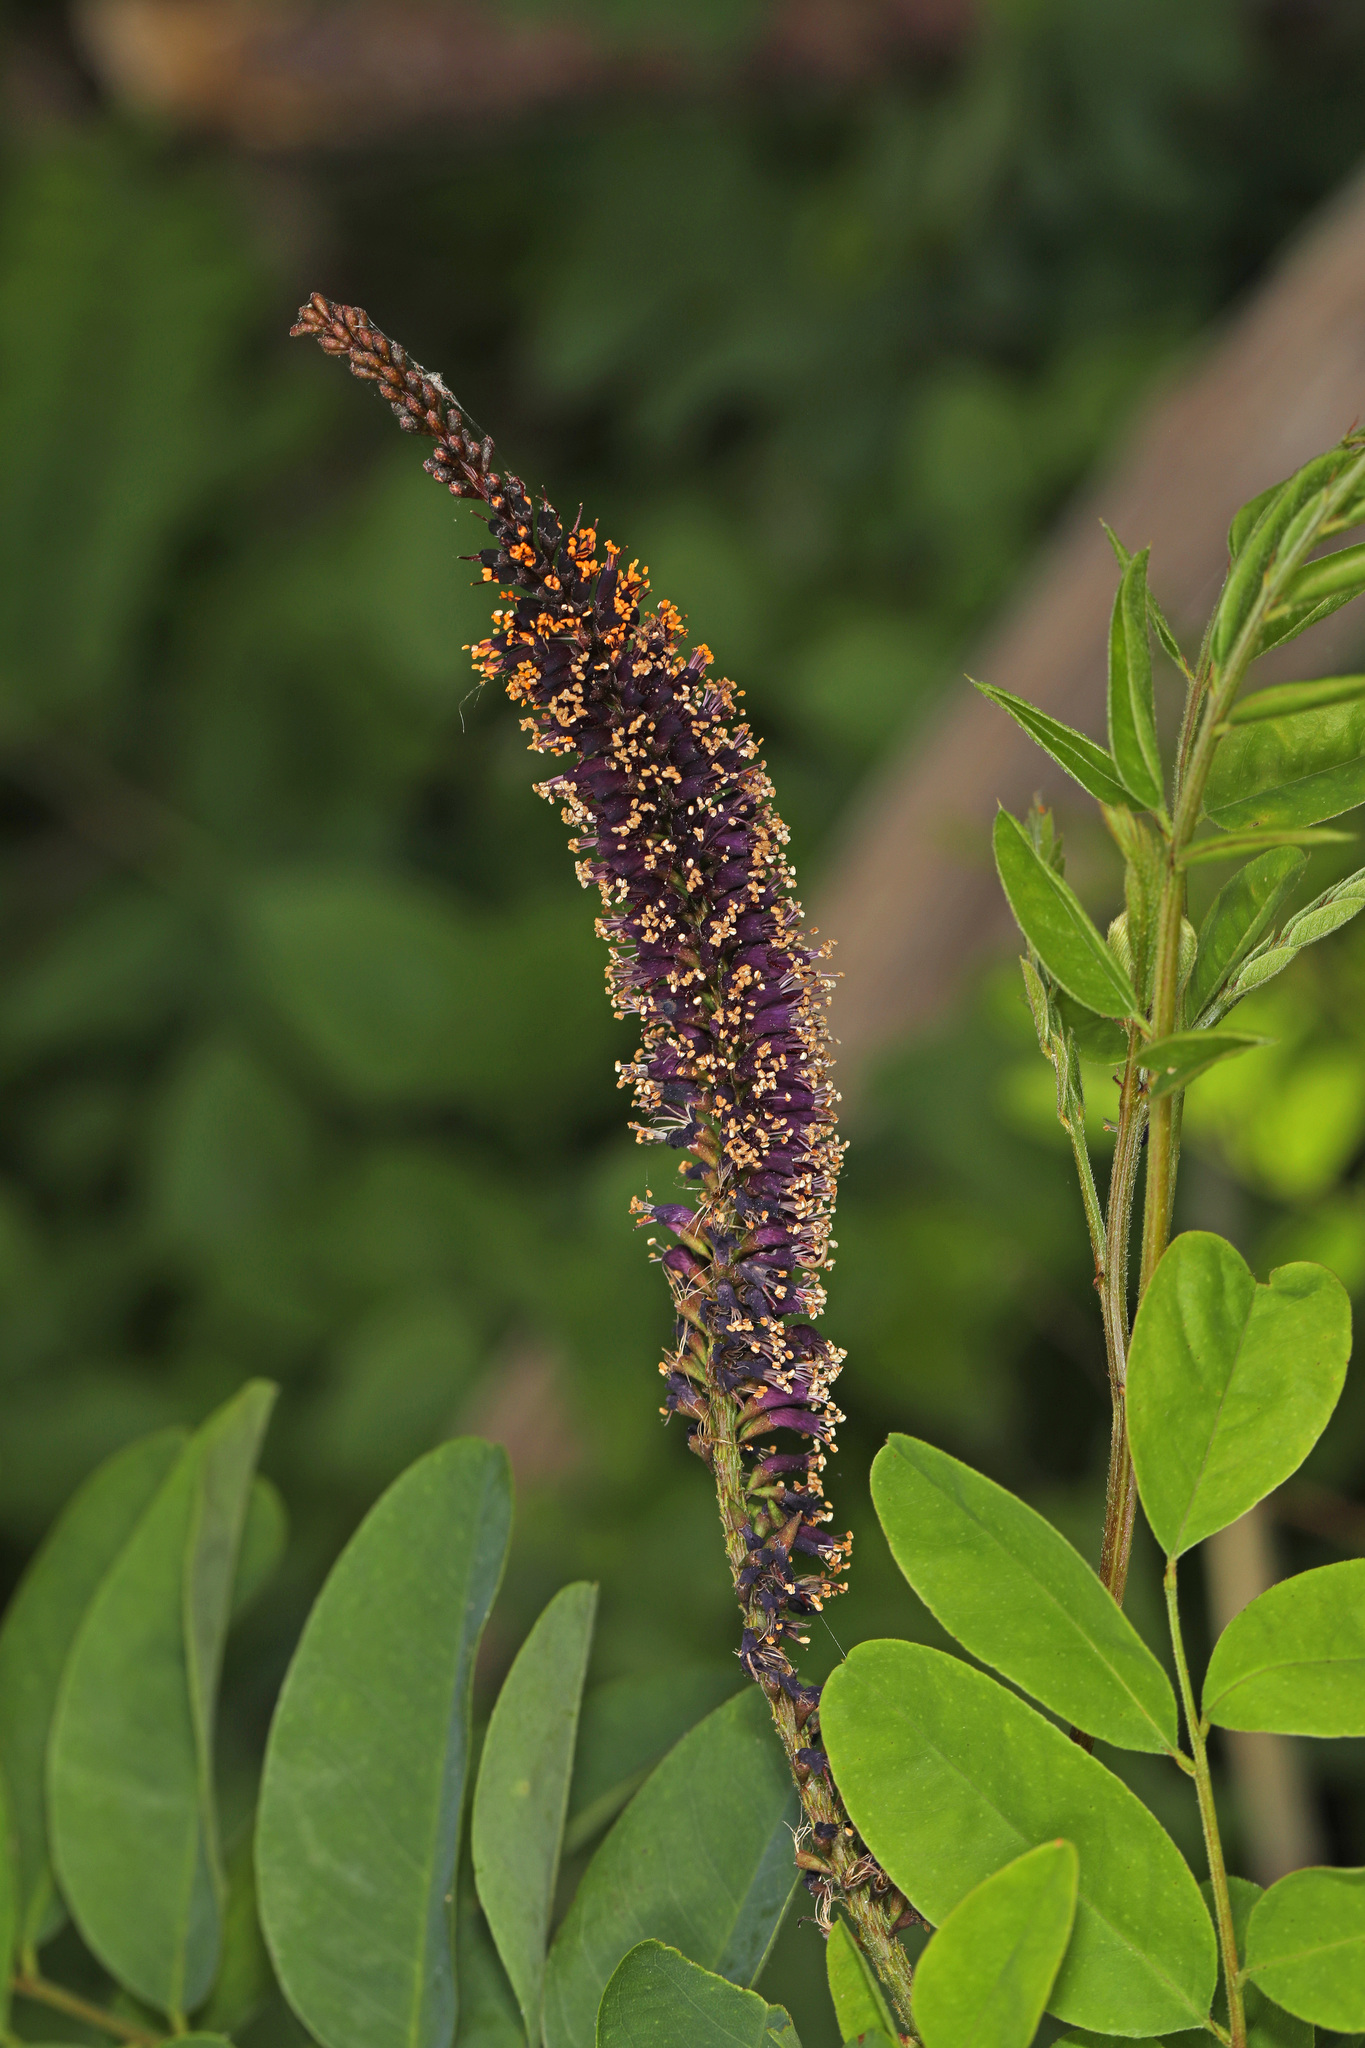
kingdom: Plantae
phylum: Tracheophyta
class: Magnoliopsida
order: Fabales
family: Fabaceae
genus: Amorpha
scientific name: Amorpha fruticosa
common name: False indigo
